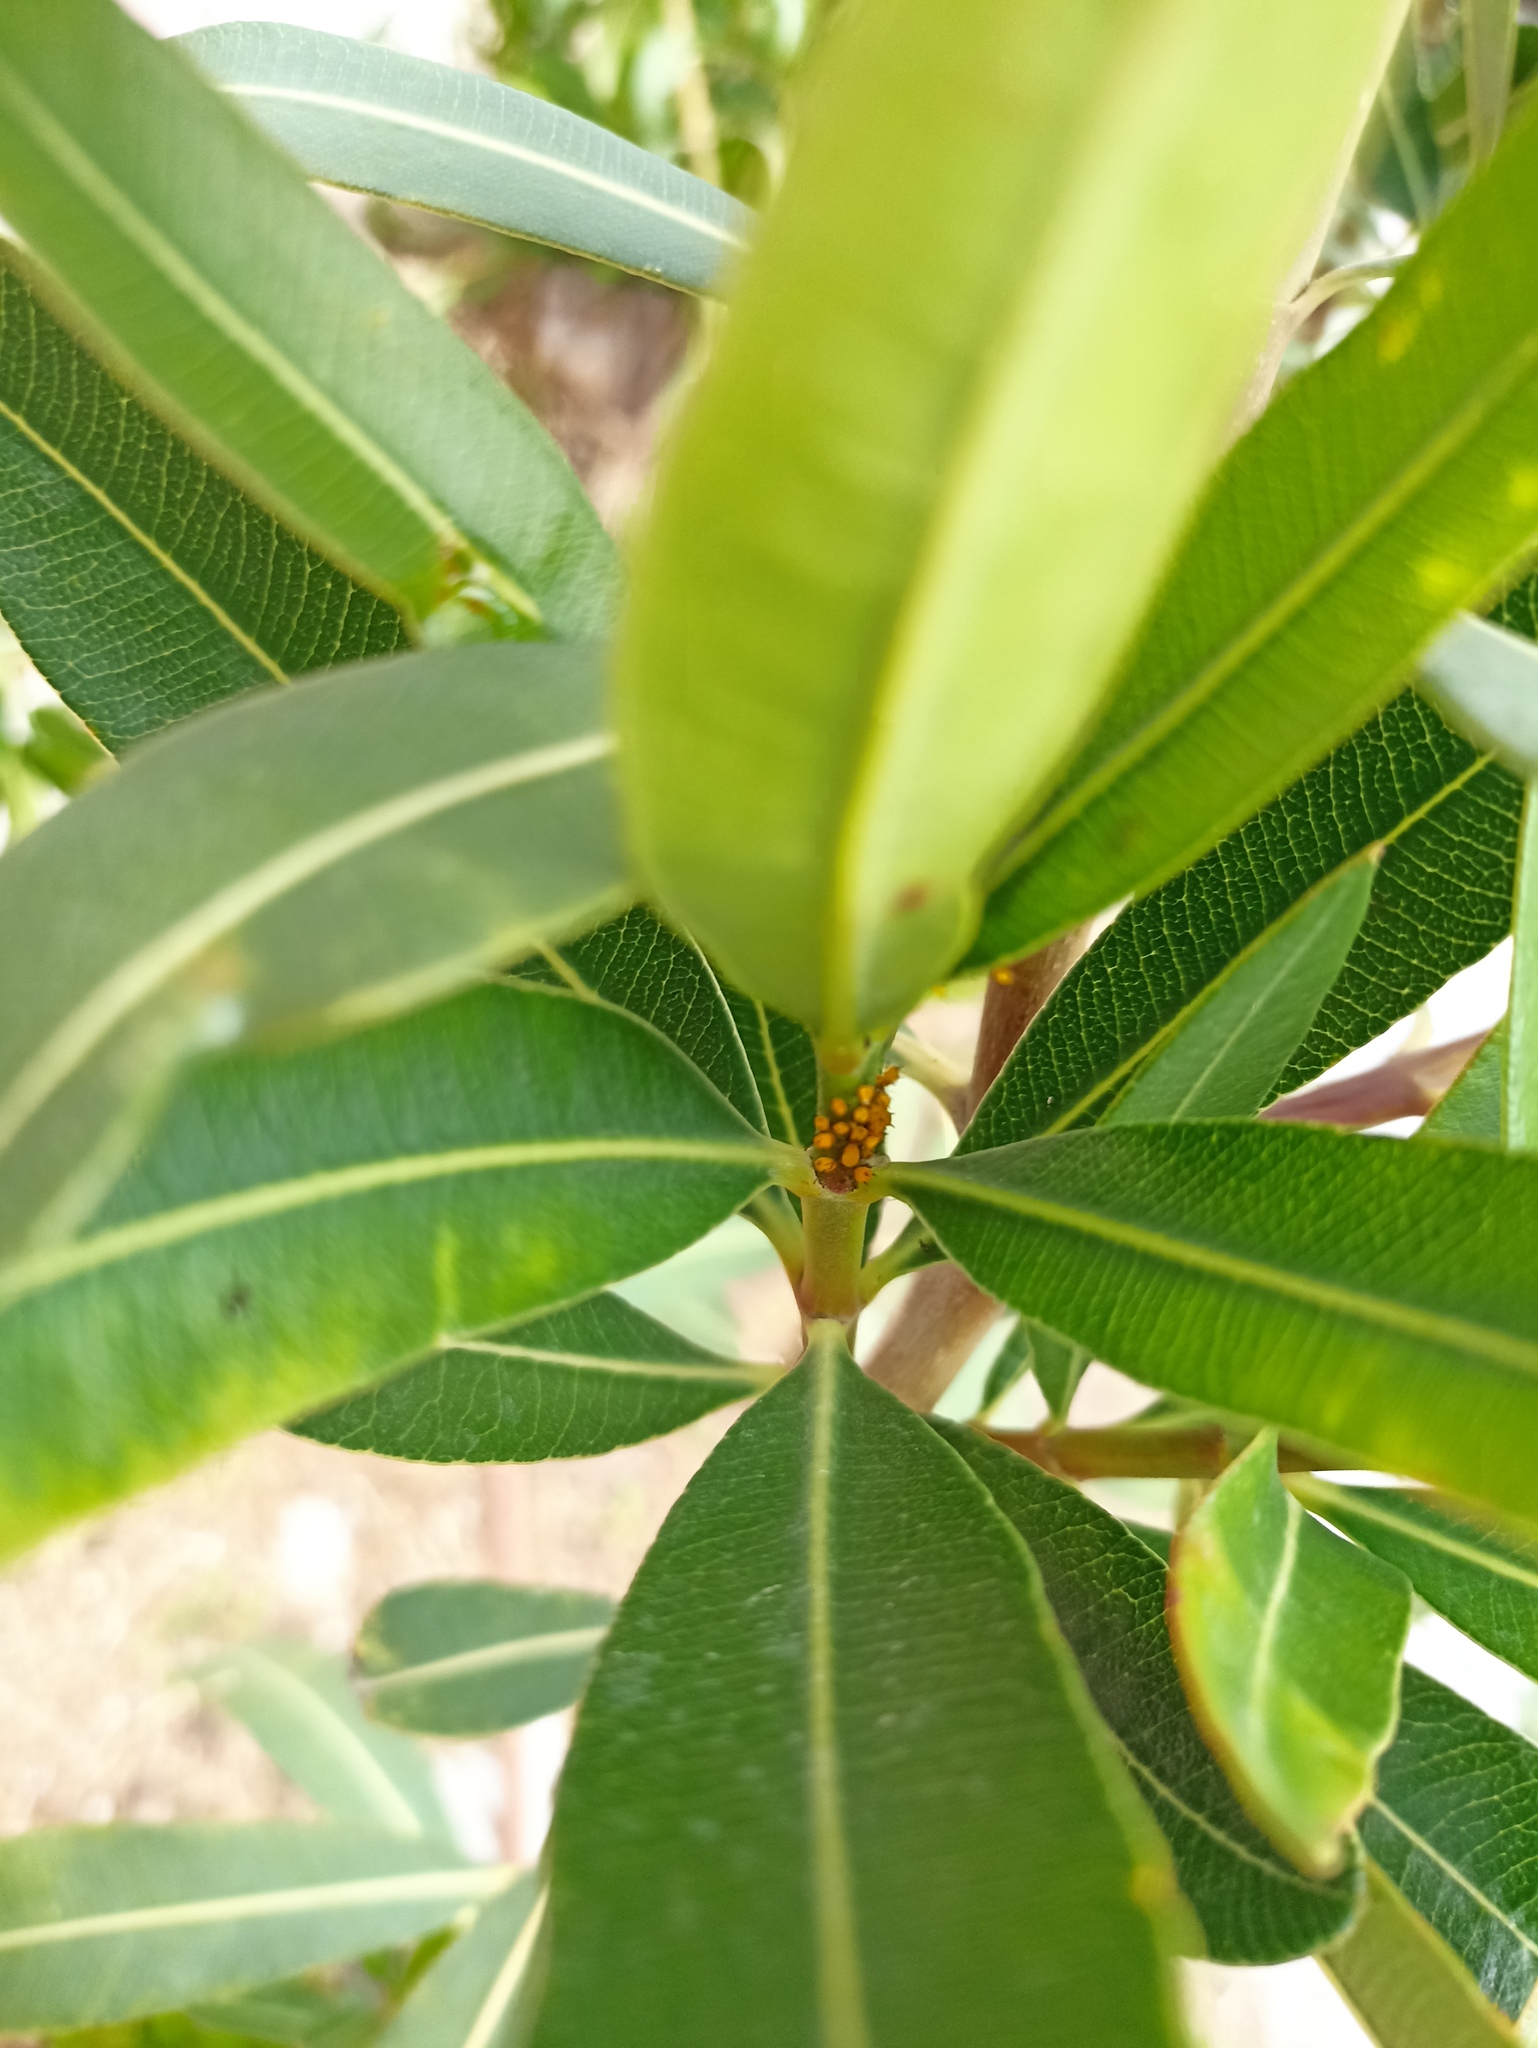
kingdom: Animalia
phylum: Arthropoda
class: Insecta
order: Hemiptera
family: Aphididae
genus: Aphis
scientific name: Aphis nerii
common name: Oleander aphid
